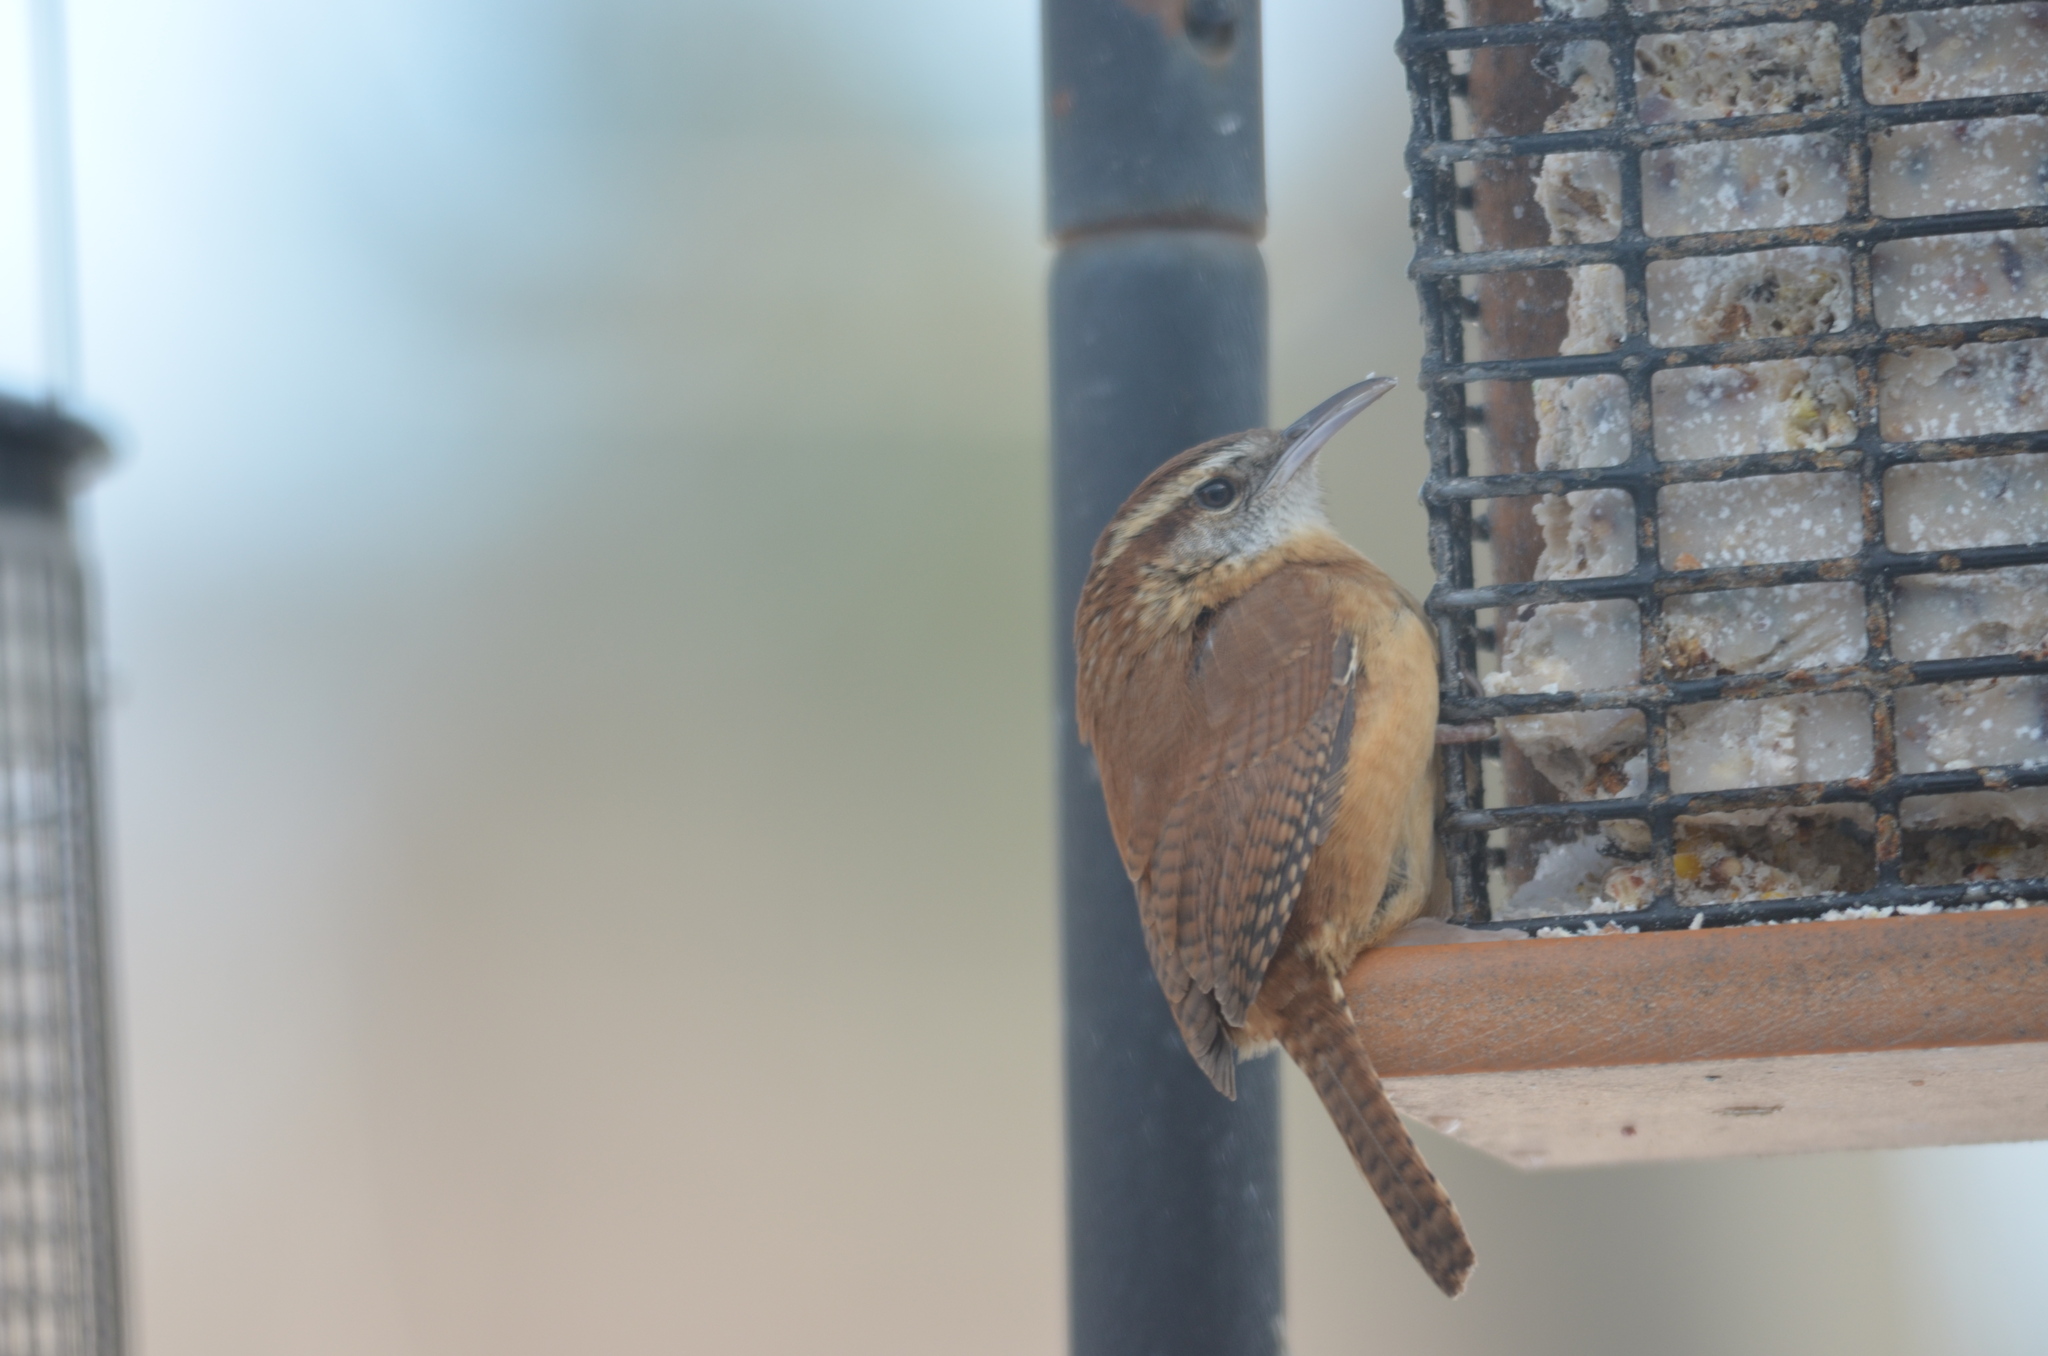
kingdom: Animalia
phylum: Chordata
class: Aves
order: Passeriformes
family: Troglodytidae
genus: Thryothorus
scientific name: Thryothorus ludovicianus
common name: Carolina wren
